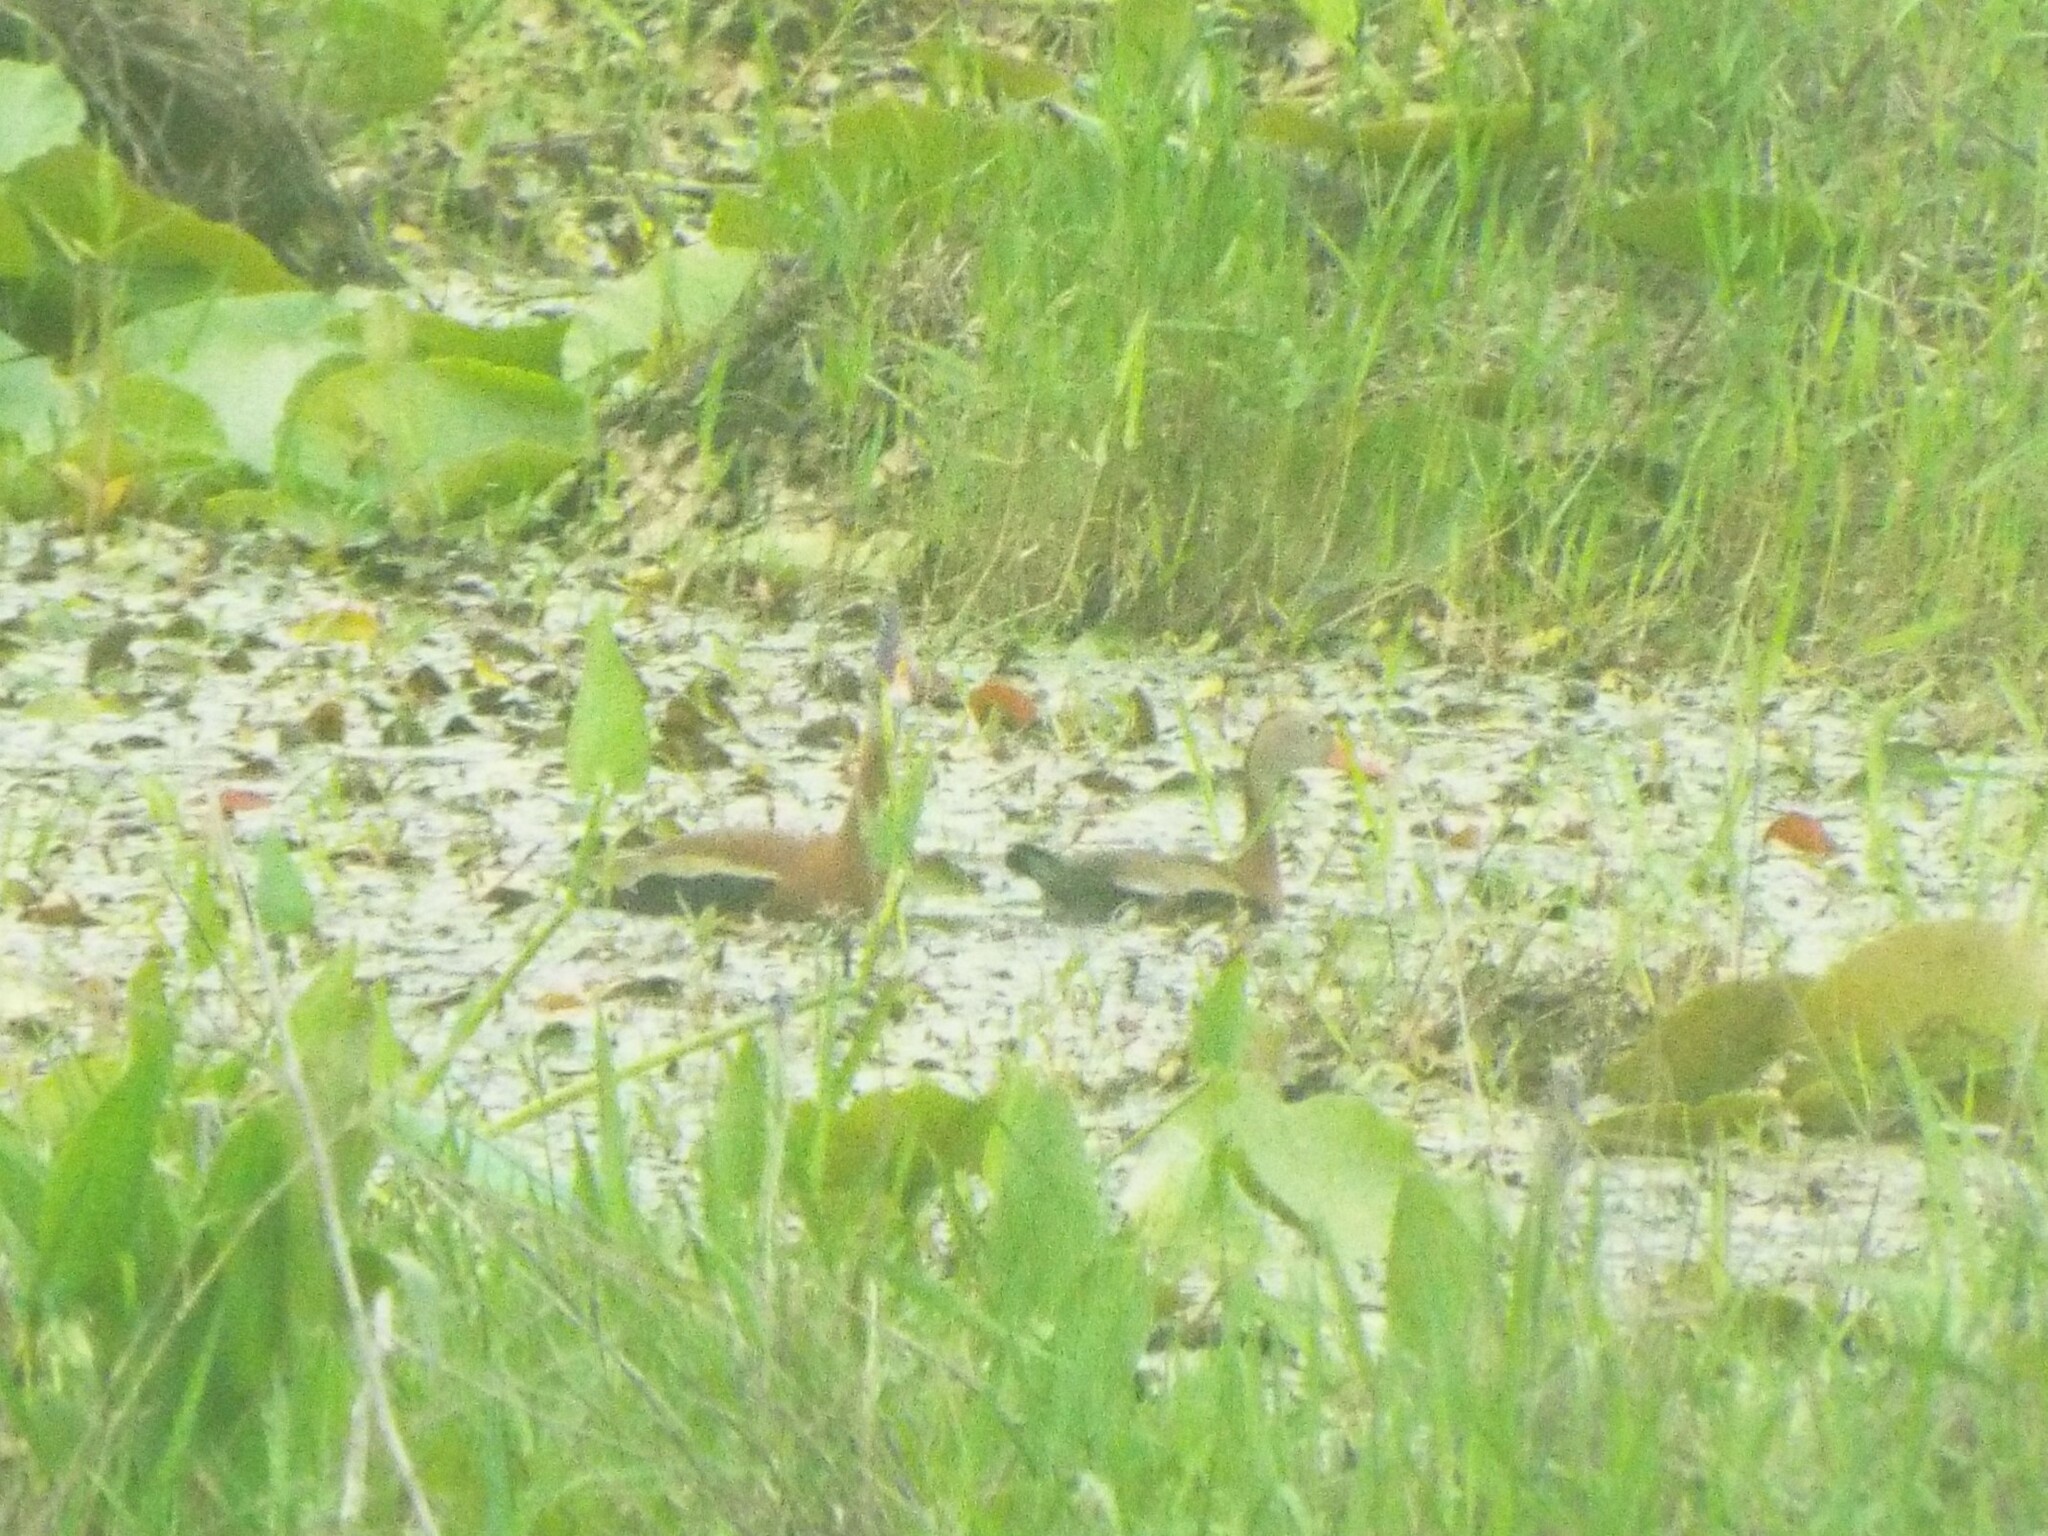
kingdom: Animalia
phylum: Chordata
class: Aves
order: Anseriformes
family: Anatidae
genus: Dendrocygna
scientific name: Dendrocygna autumnalis
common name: Black-bellied whistling duck
